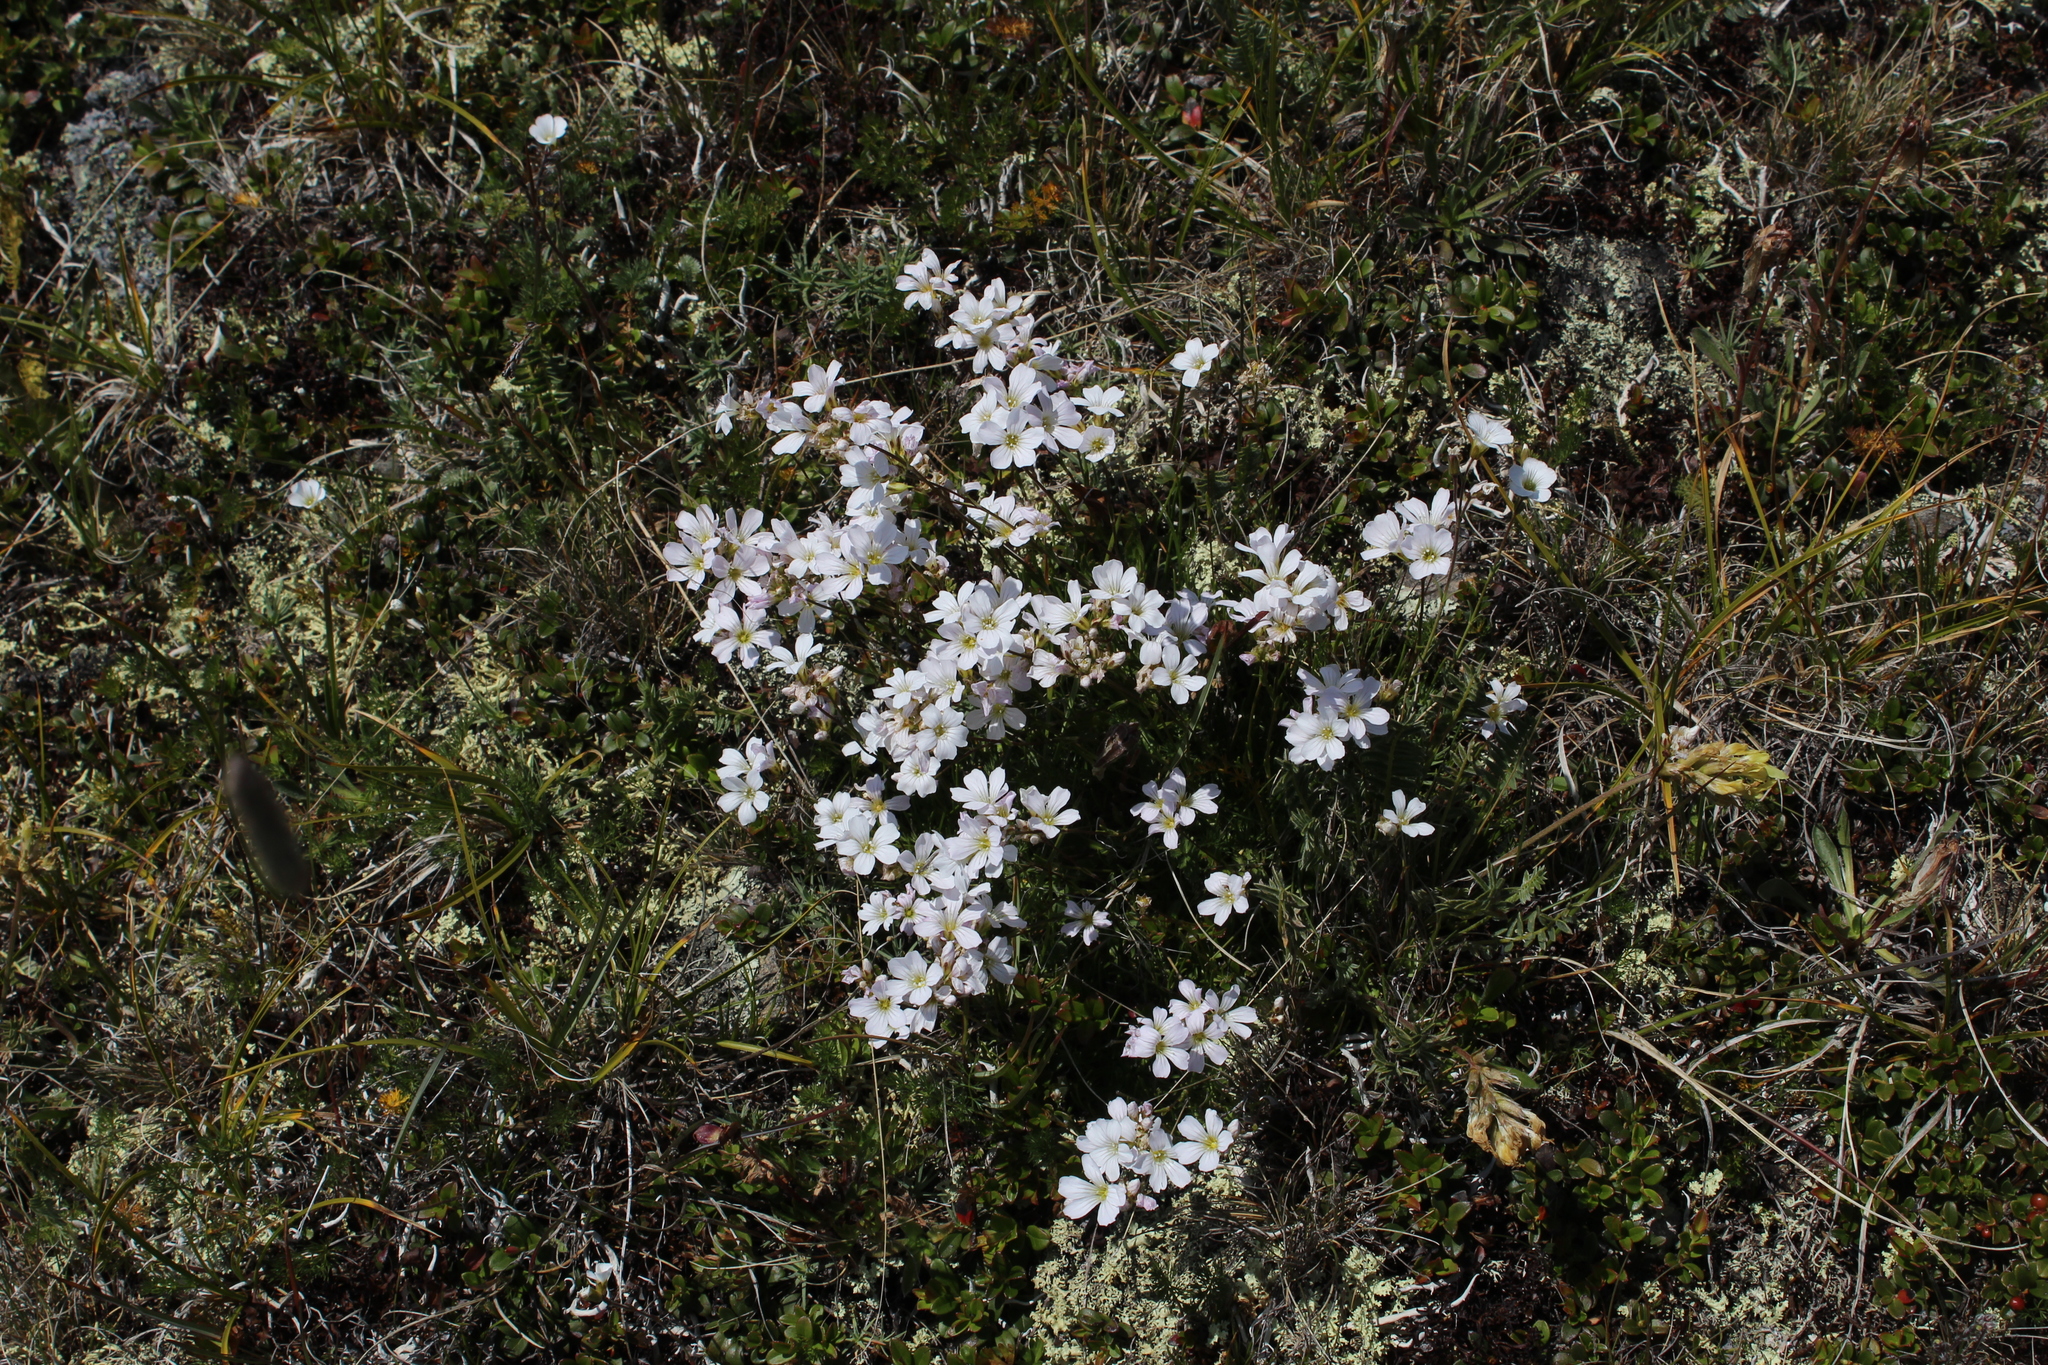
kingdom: Plantae
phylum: Tracheophyta
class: Magnoliopsida
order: Caryophyllales
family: Caryophyllaceae
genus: Gypsophila
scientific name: Gypsophila tenuifolia
